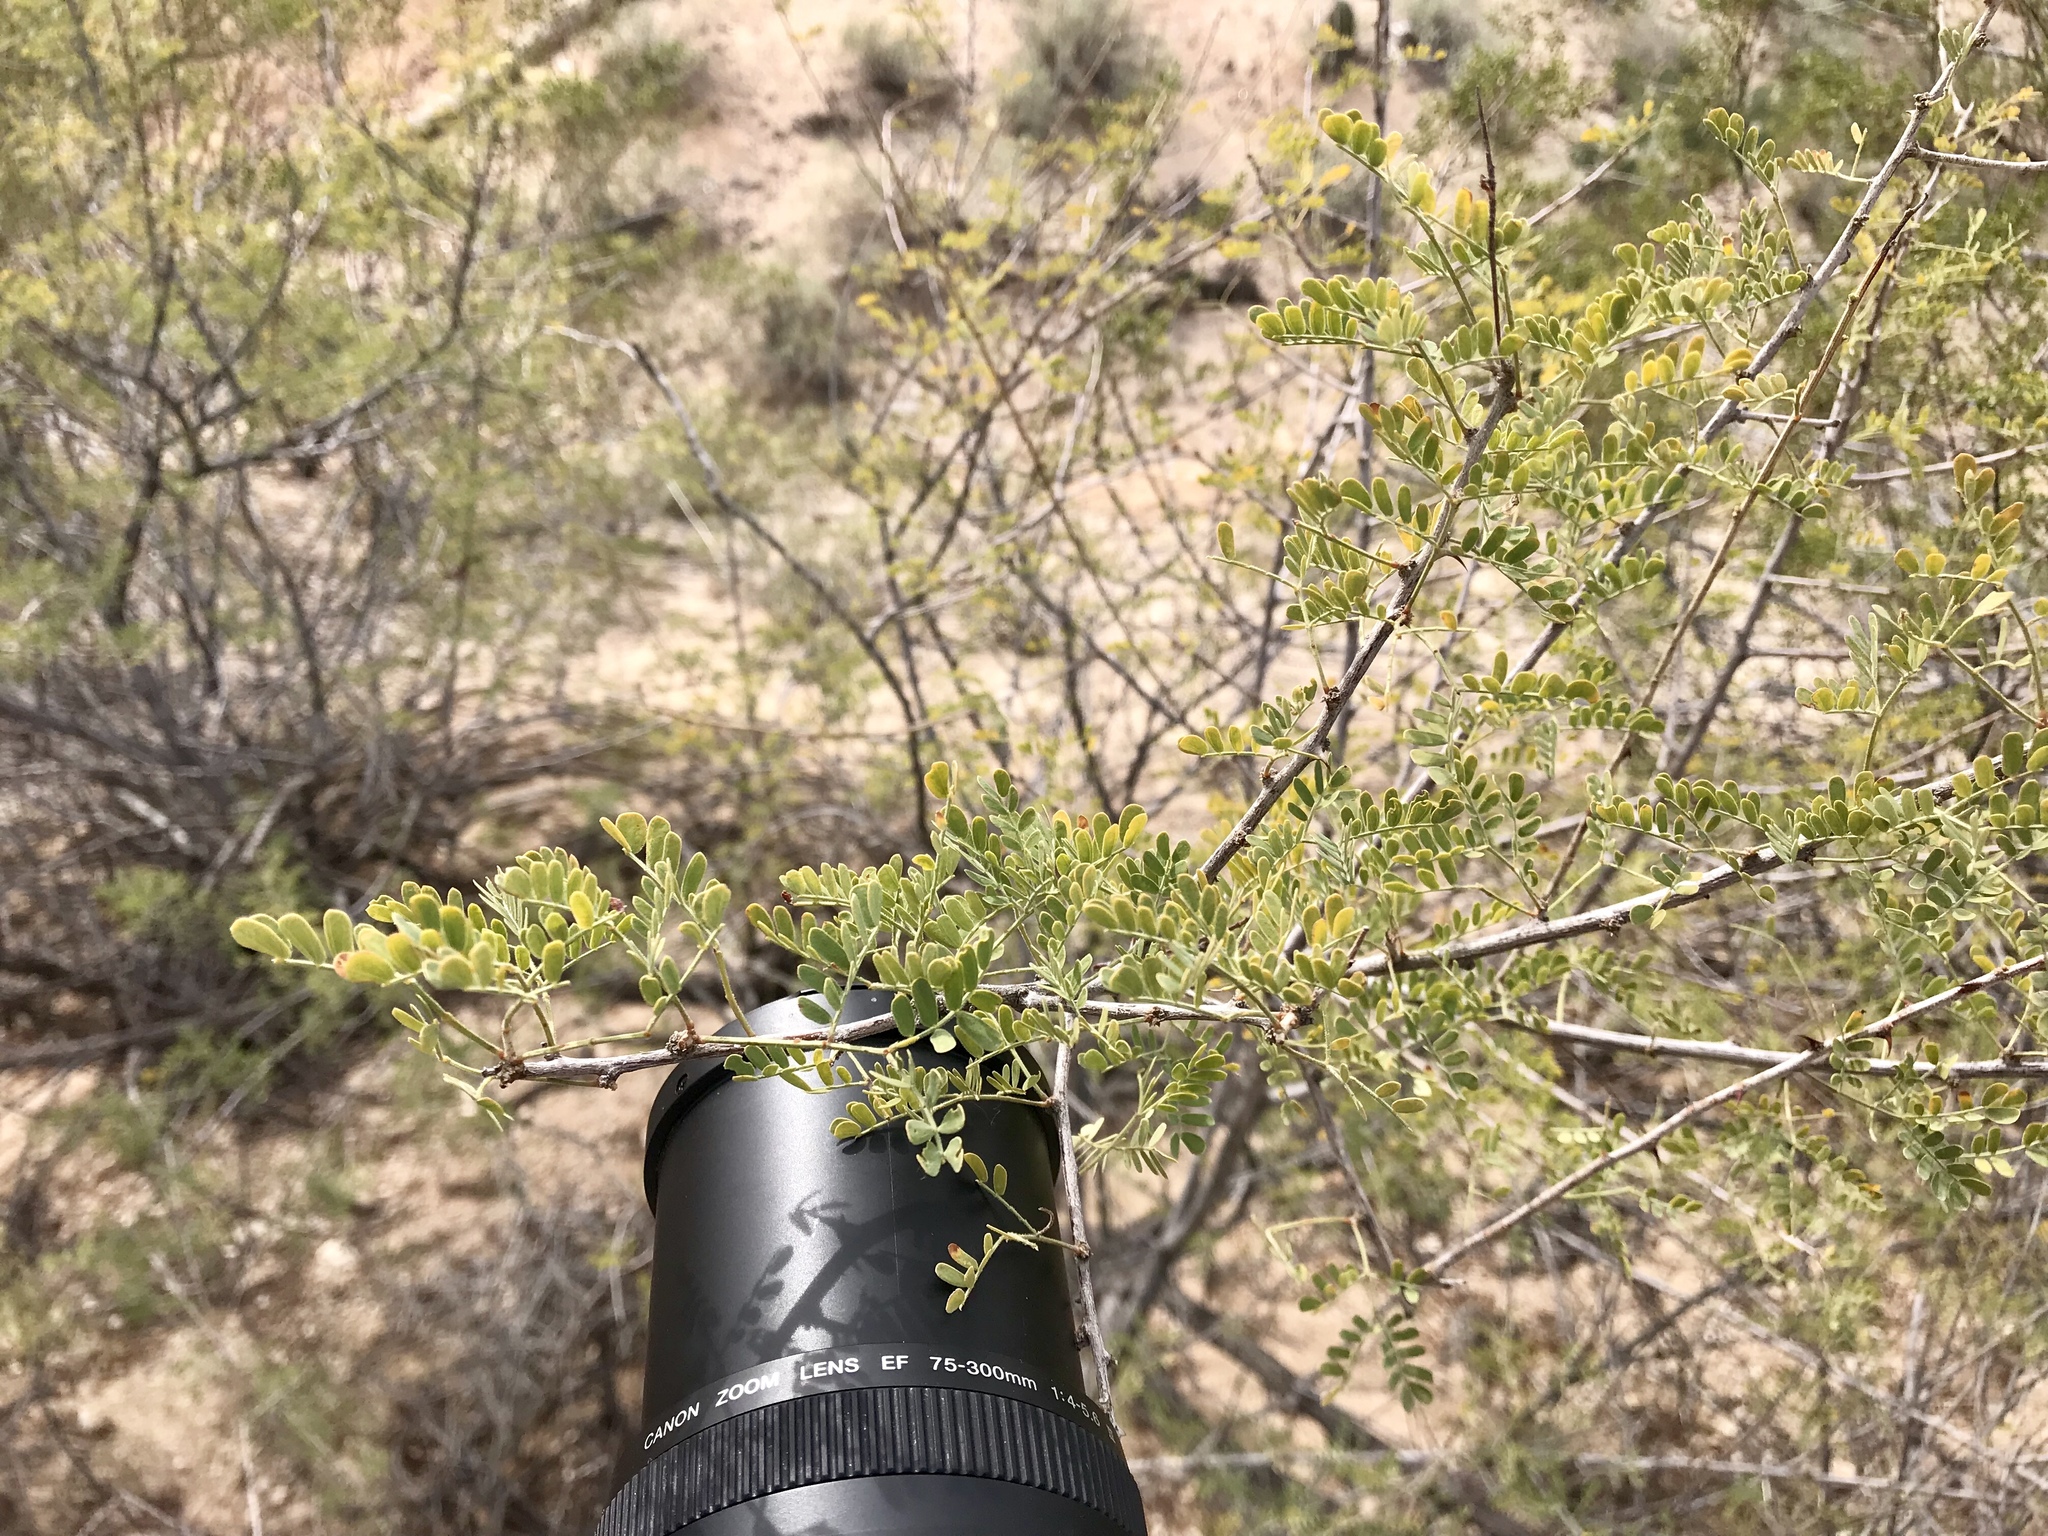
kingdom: Plantae
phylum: Tracheophyta
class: Magnoliopsida
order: Fabales
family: Fabaceae
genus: Senegalia
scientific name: Senegalia greggii
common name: Texas-mimosa
